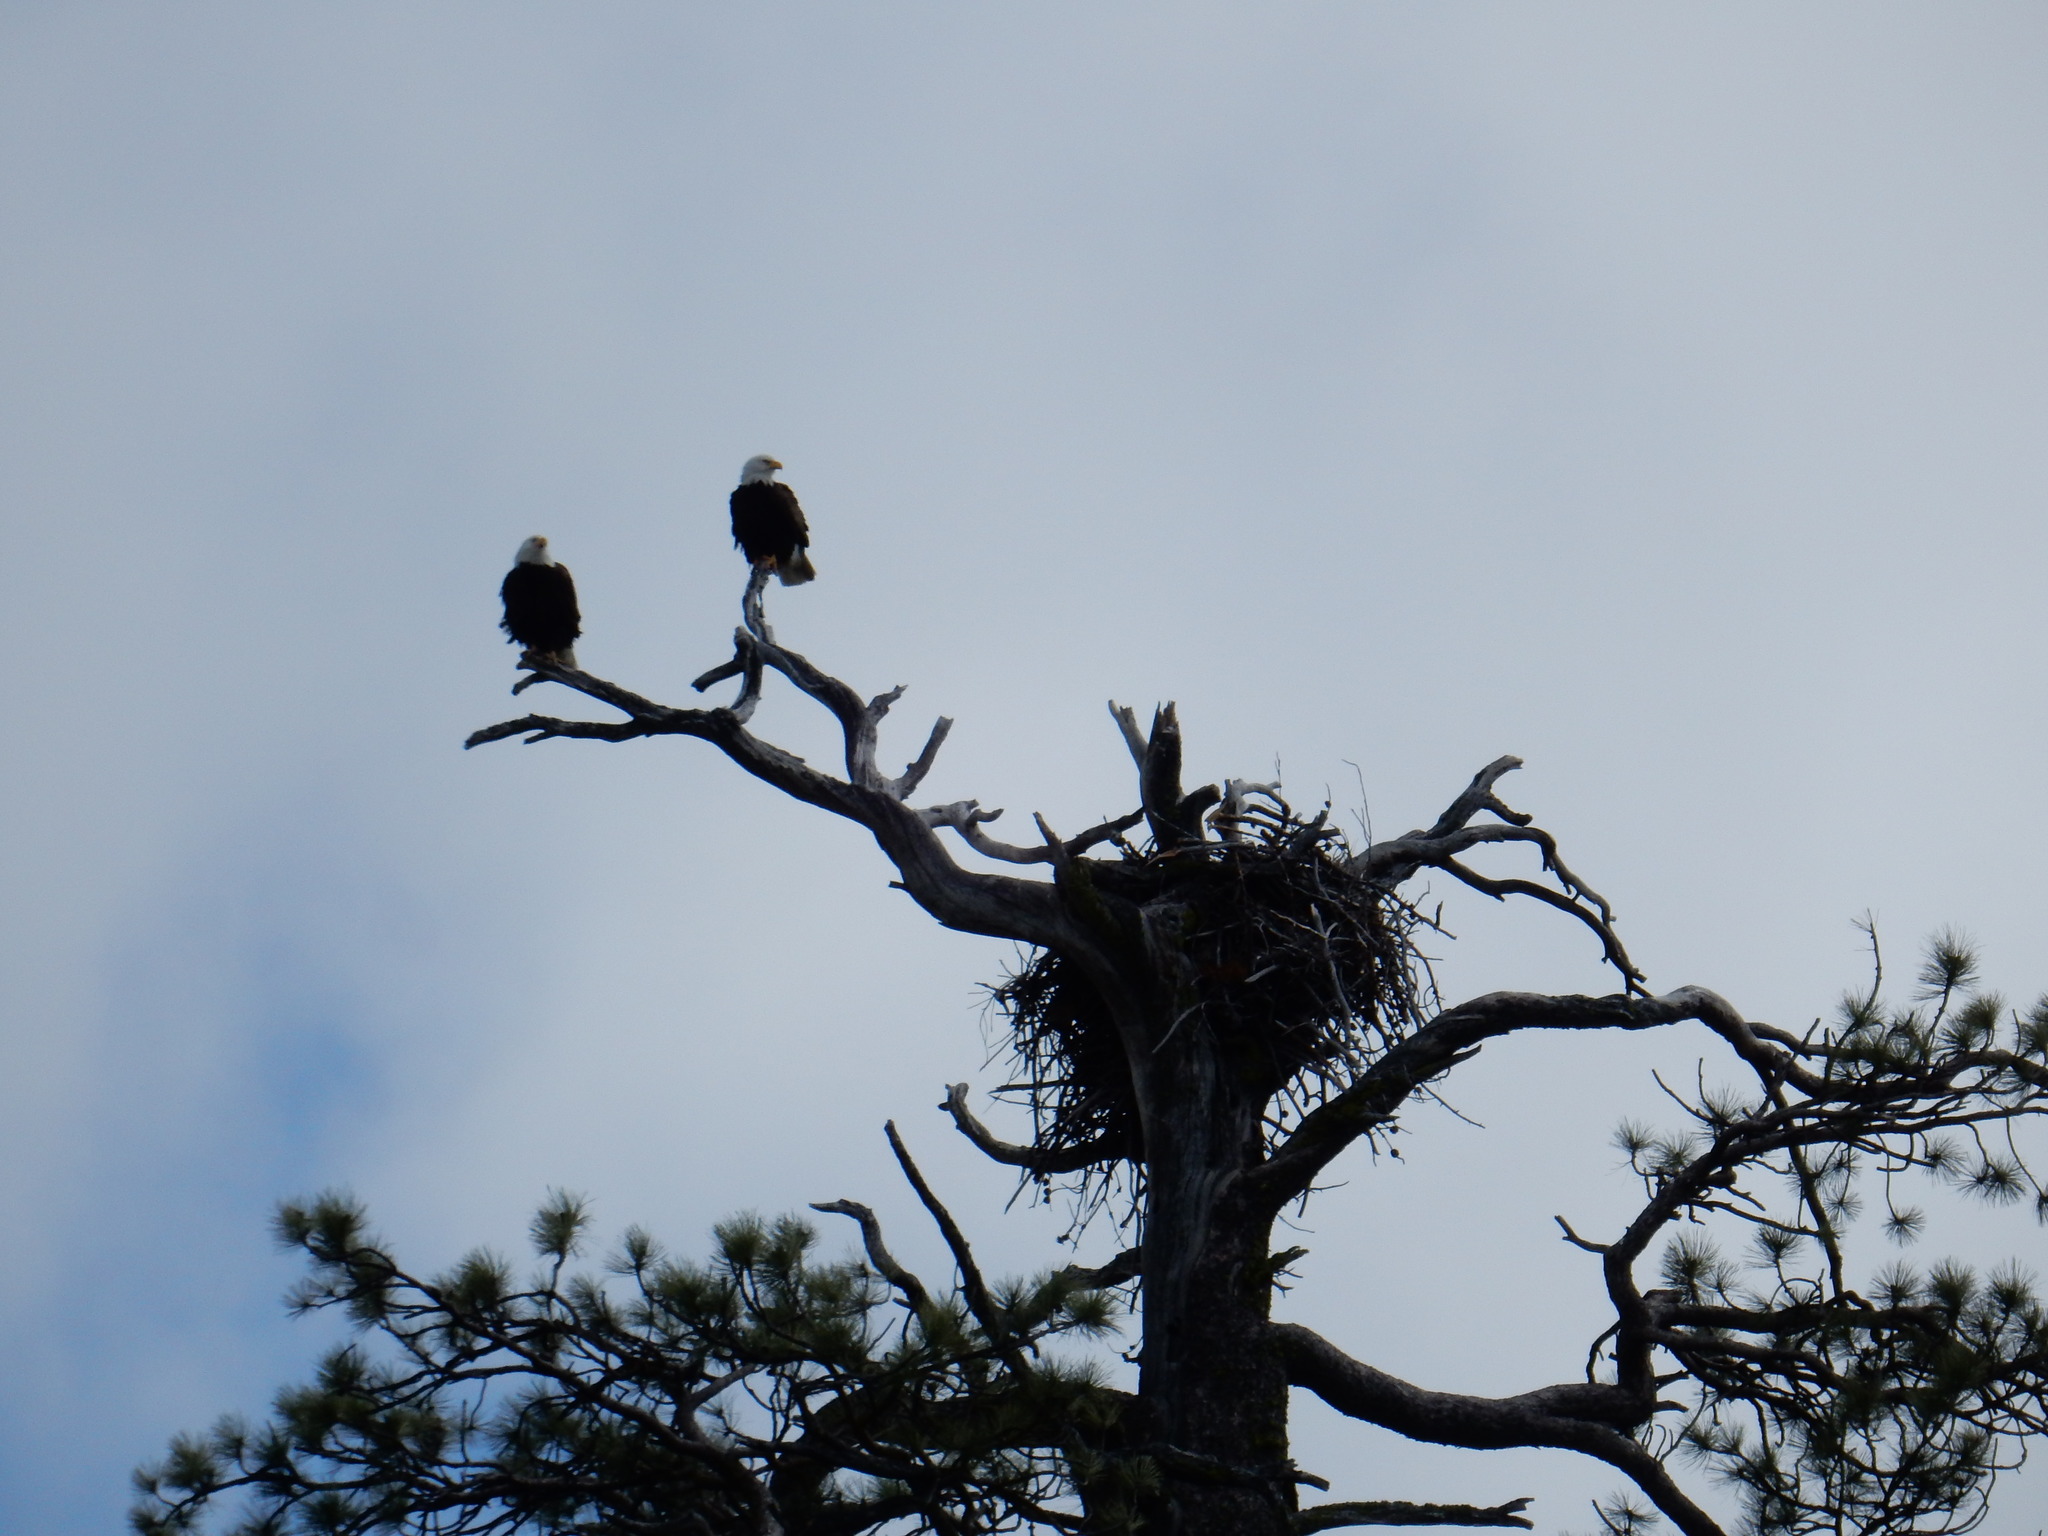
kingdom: Animalia
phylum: Chordata
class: Aves
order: Accipitriformes
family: Accipitridae
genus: Haliaeetus
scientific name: Haliaeetus leucocephalus
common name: Bald eagle
